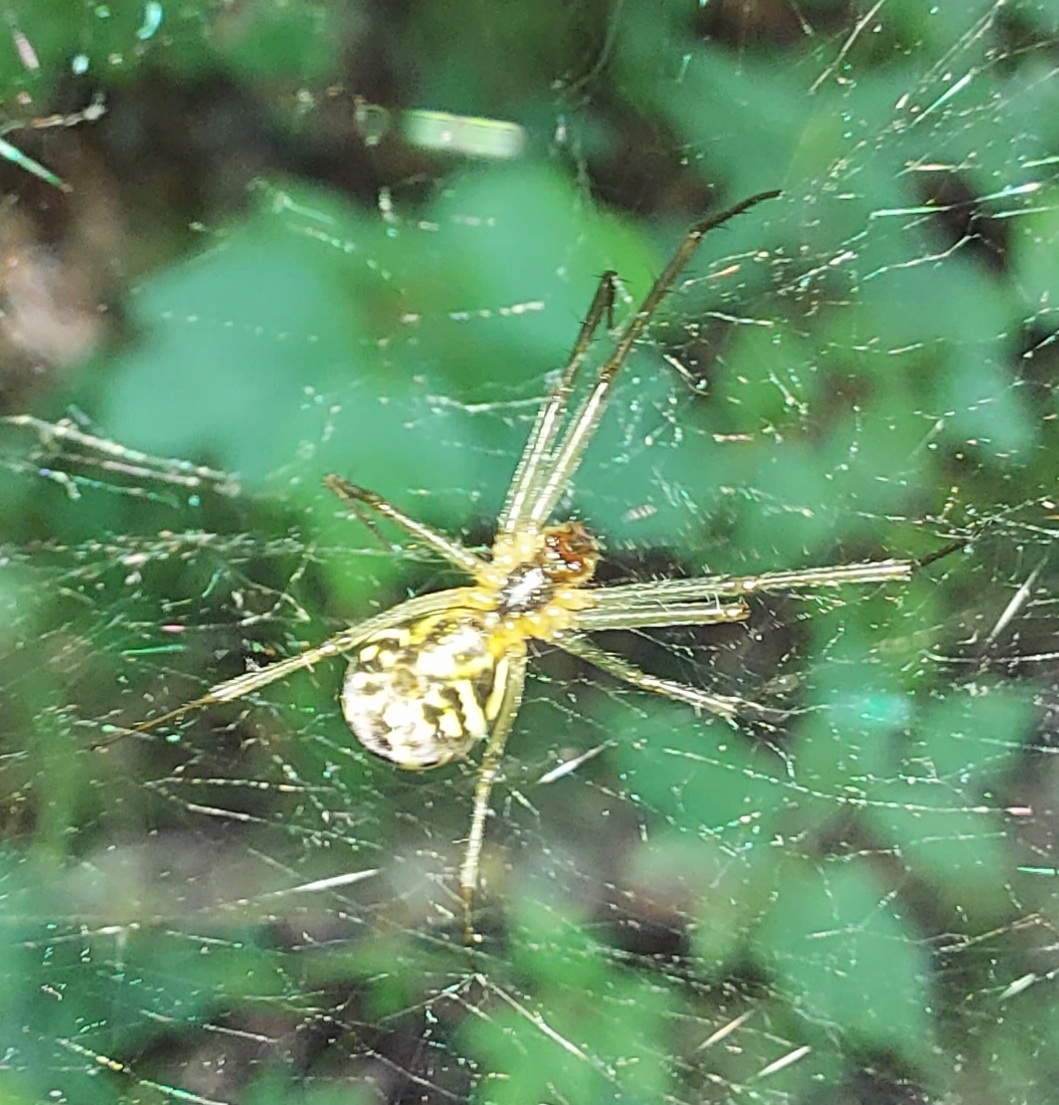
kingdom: Animalia
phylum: Arthropoda
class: Arachnida
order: Araneae
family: Linyphiidae
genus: Neriene
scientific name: Neriene radiata
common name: Filmy dome spider
